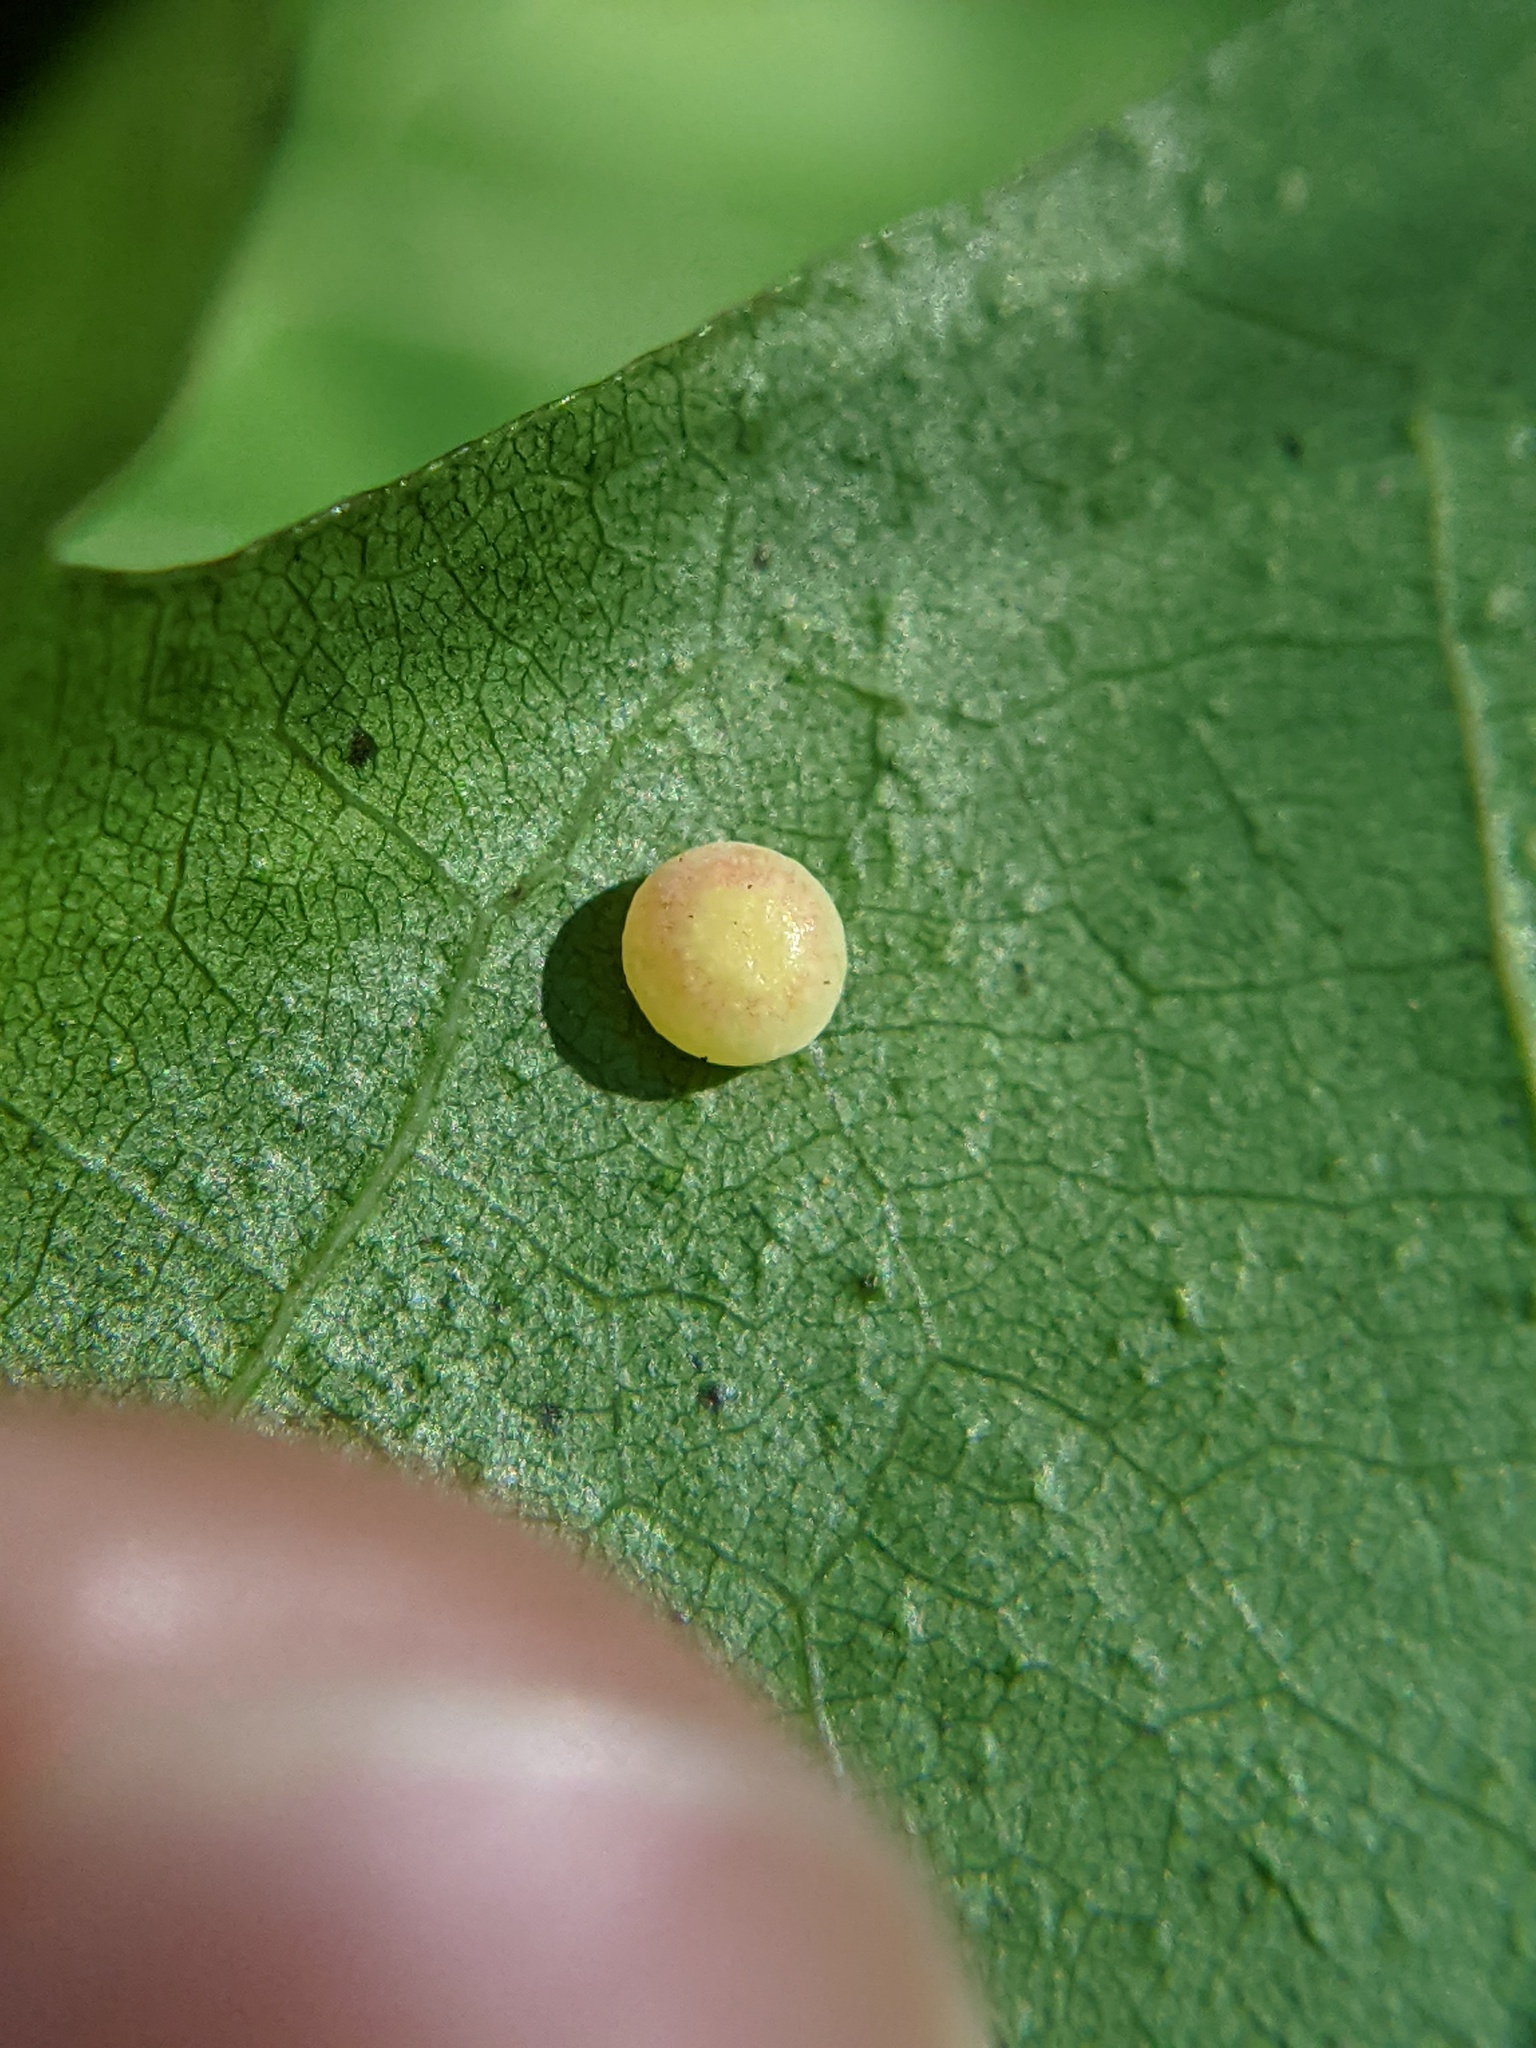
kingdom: Animalia
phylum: Arthropoda
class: Insecta
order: Hymenoptera
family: Cynipidae
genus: Zopheroteras
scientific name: Zopheroteras
